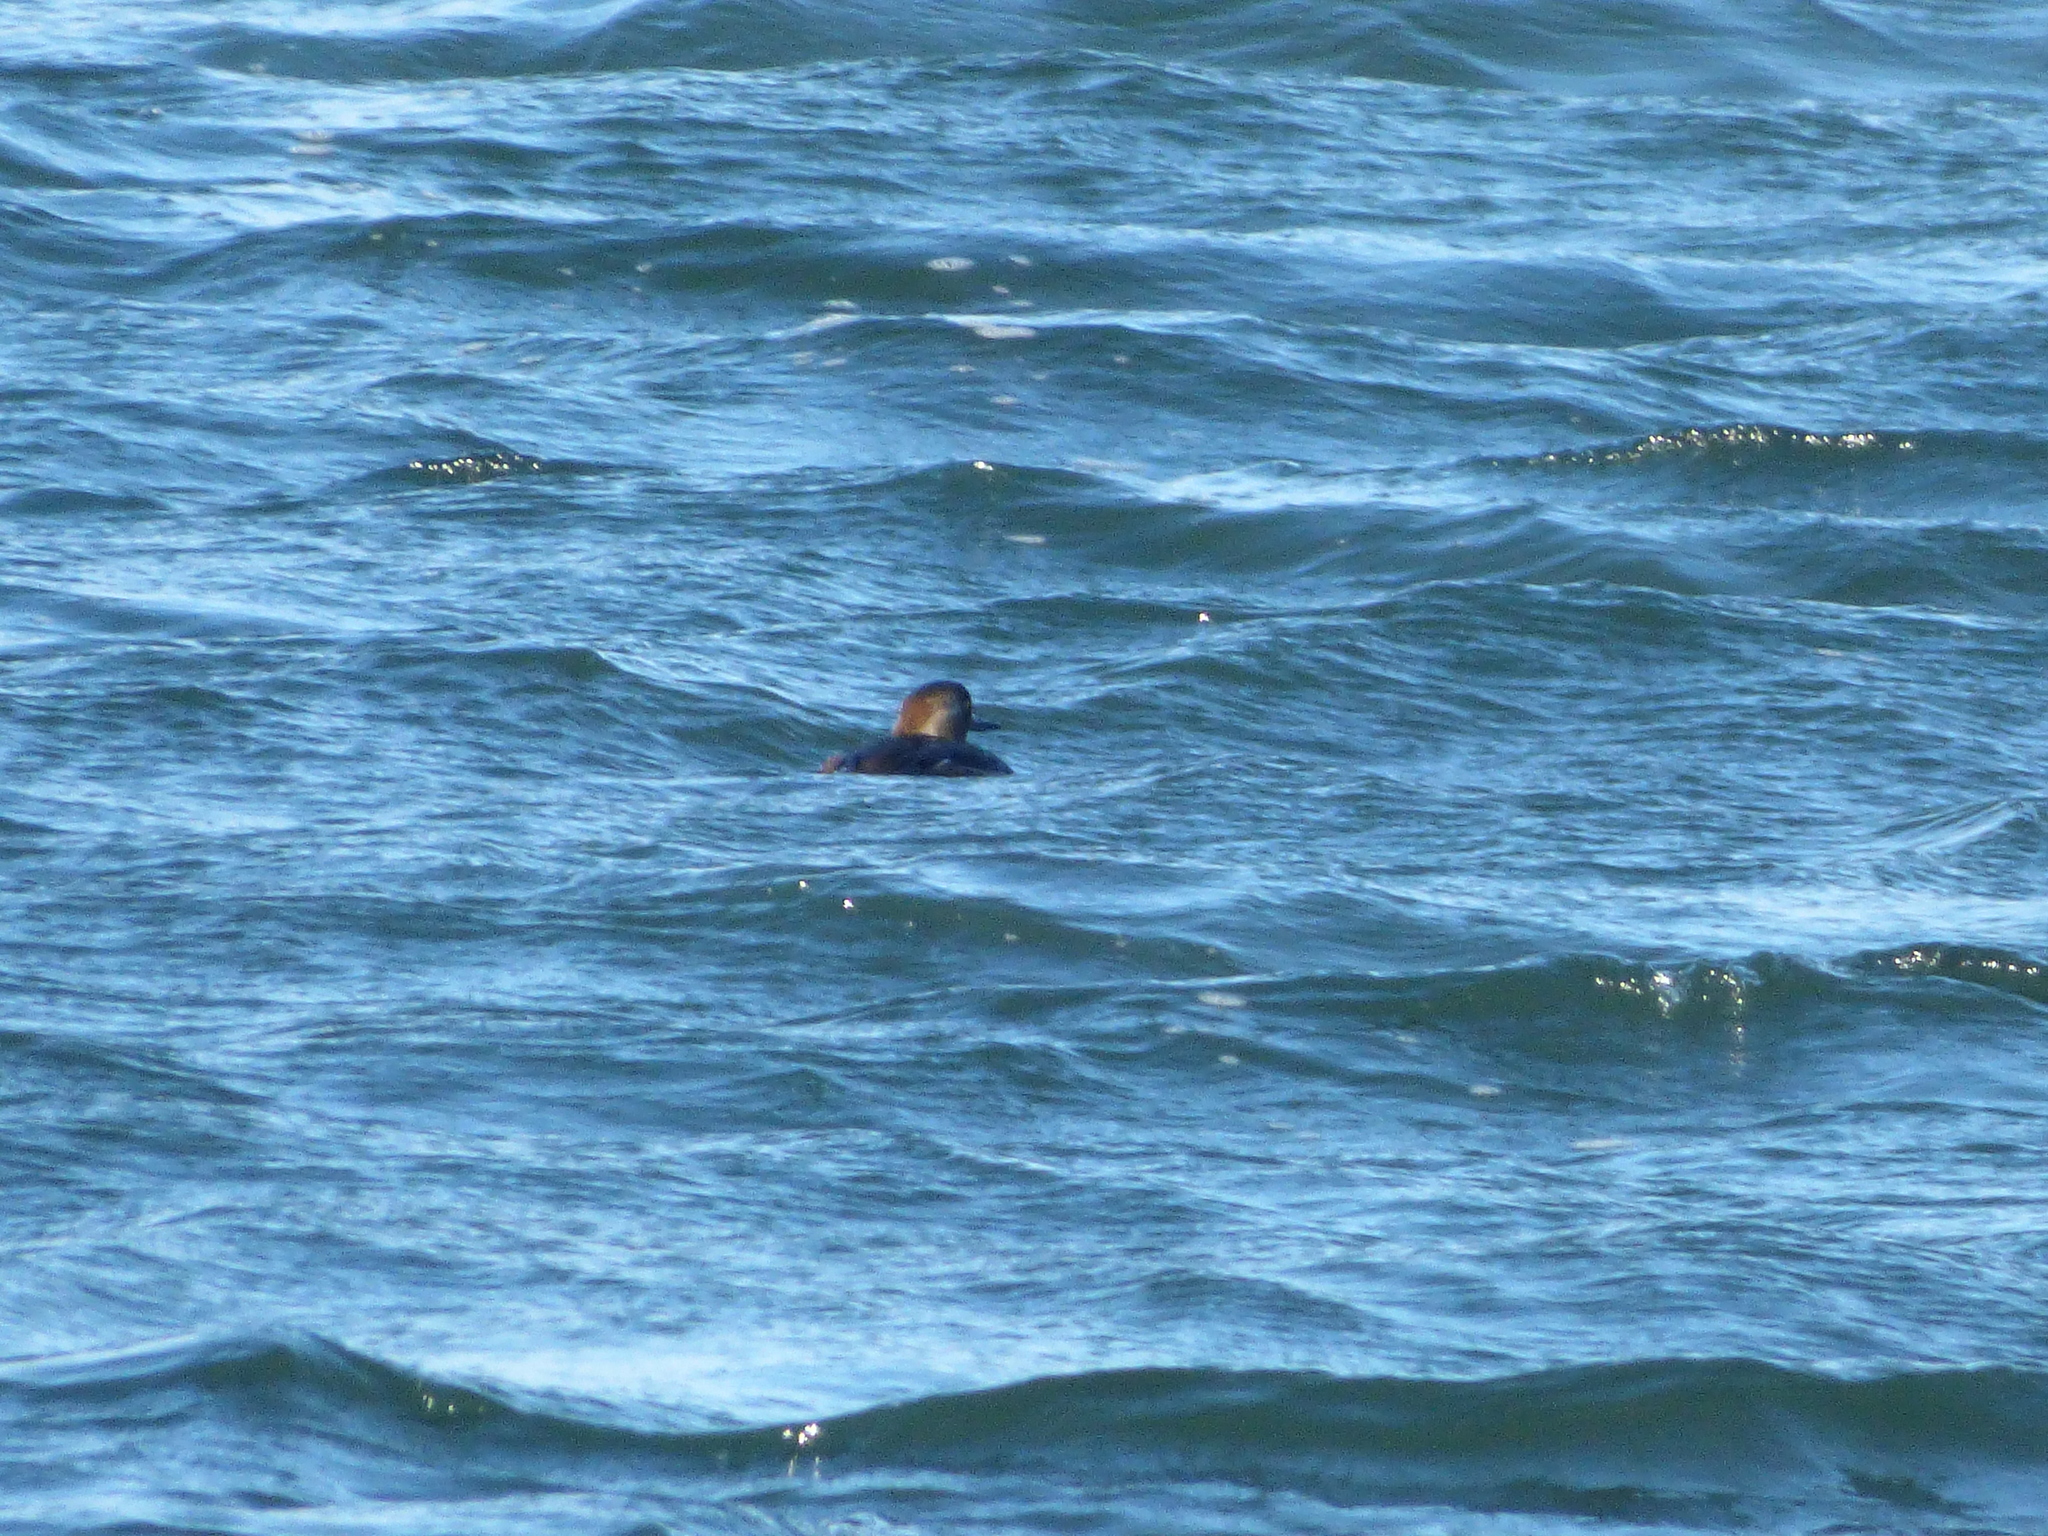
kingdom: Animalia
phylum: Chordata
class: Aves
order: Anseriformes
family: Anatidae
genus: Lophodytes
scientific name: Lophodytes cucullatus
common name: Hooded merganser
